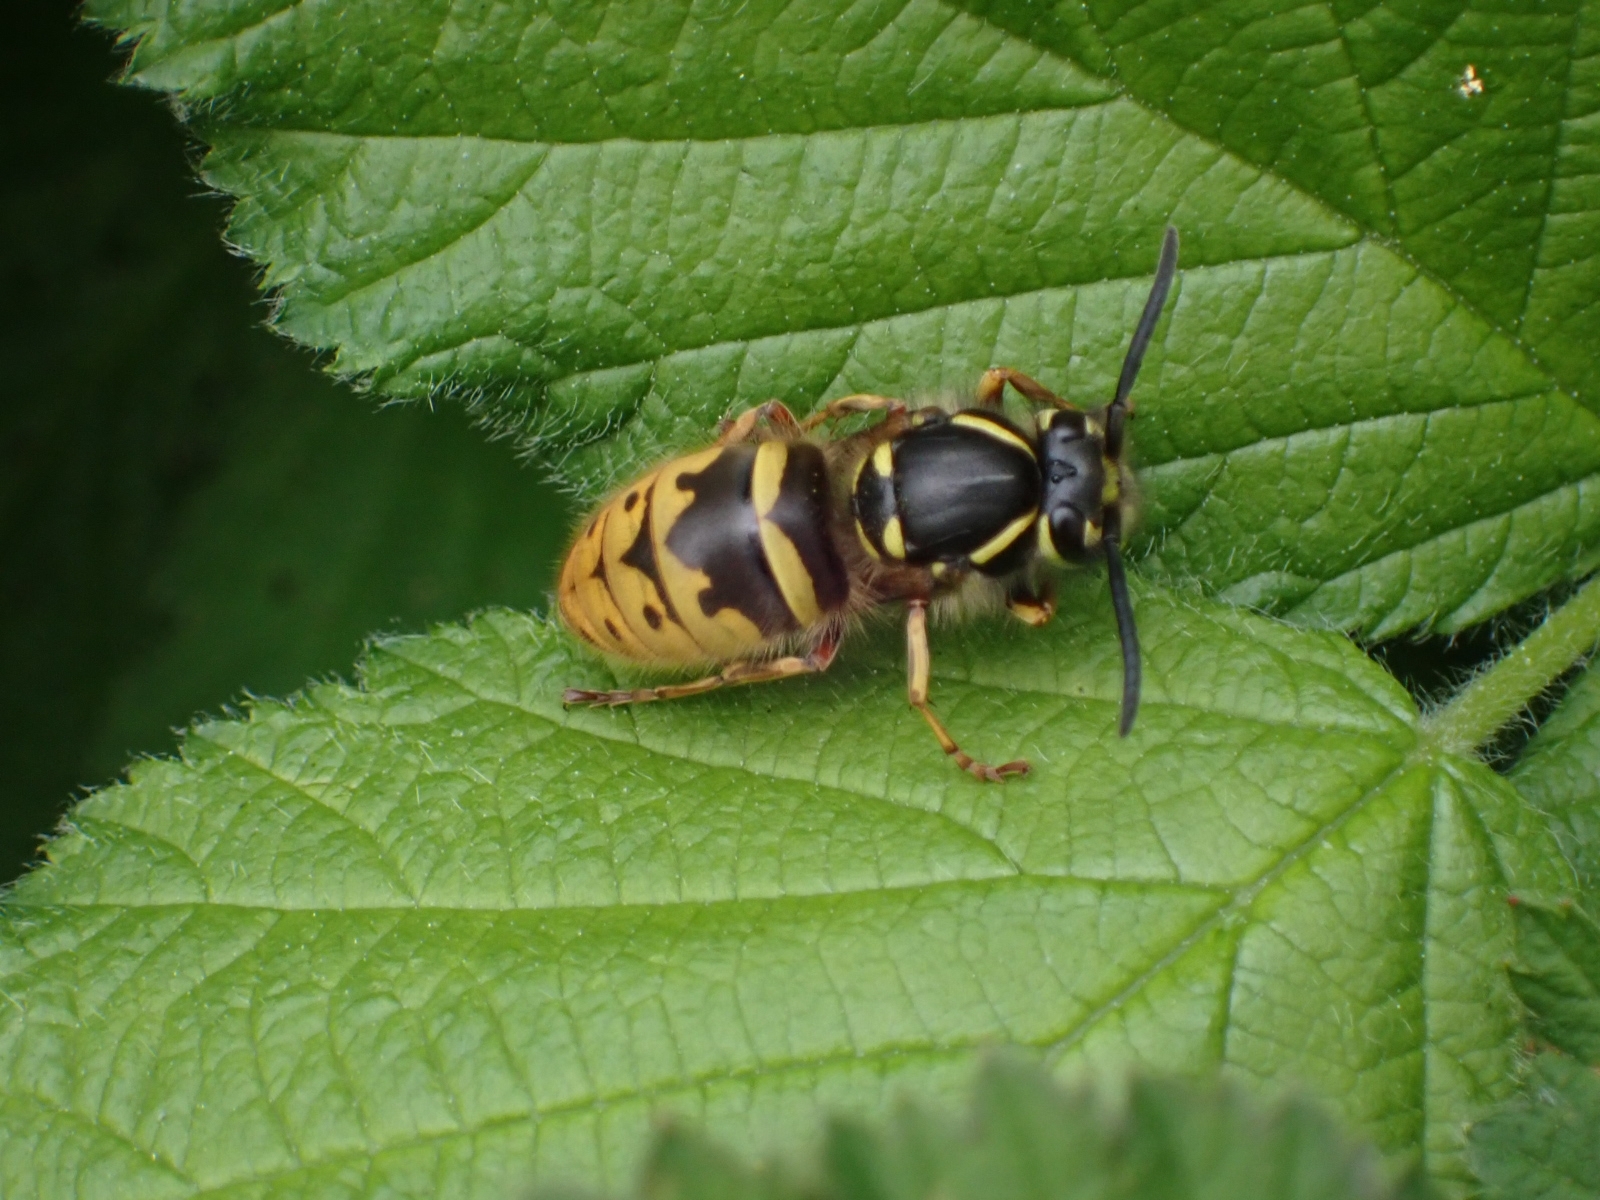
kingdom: Animalia
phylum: Arthropoda
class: Insecta
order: Hymenoptera
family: Vespidae
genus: Vespula
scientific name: Vespula vulgaris
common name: Common wasp
